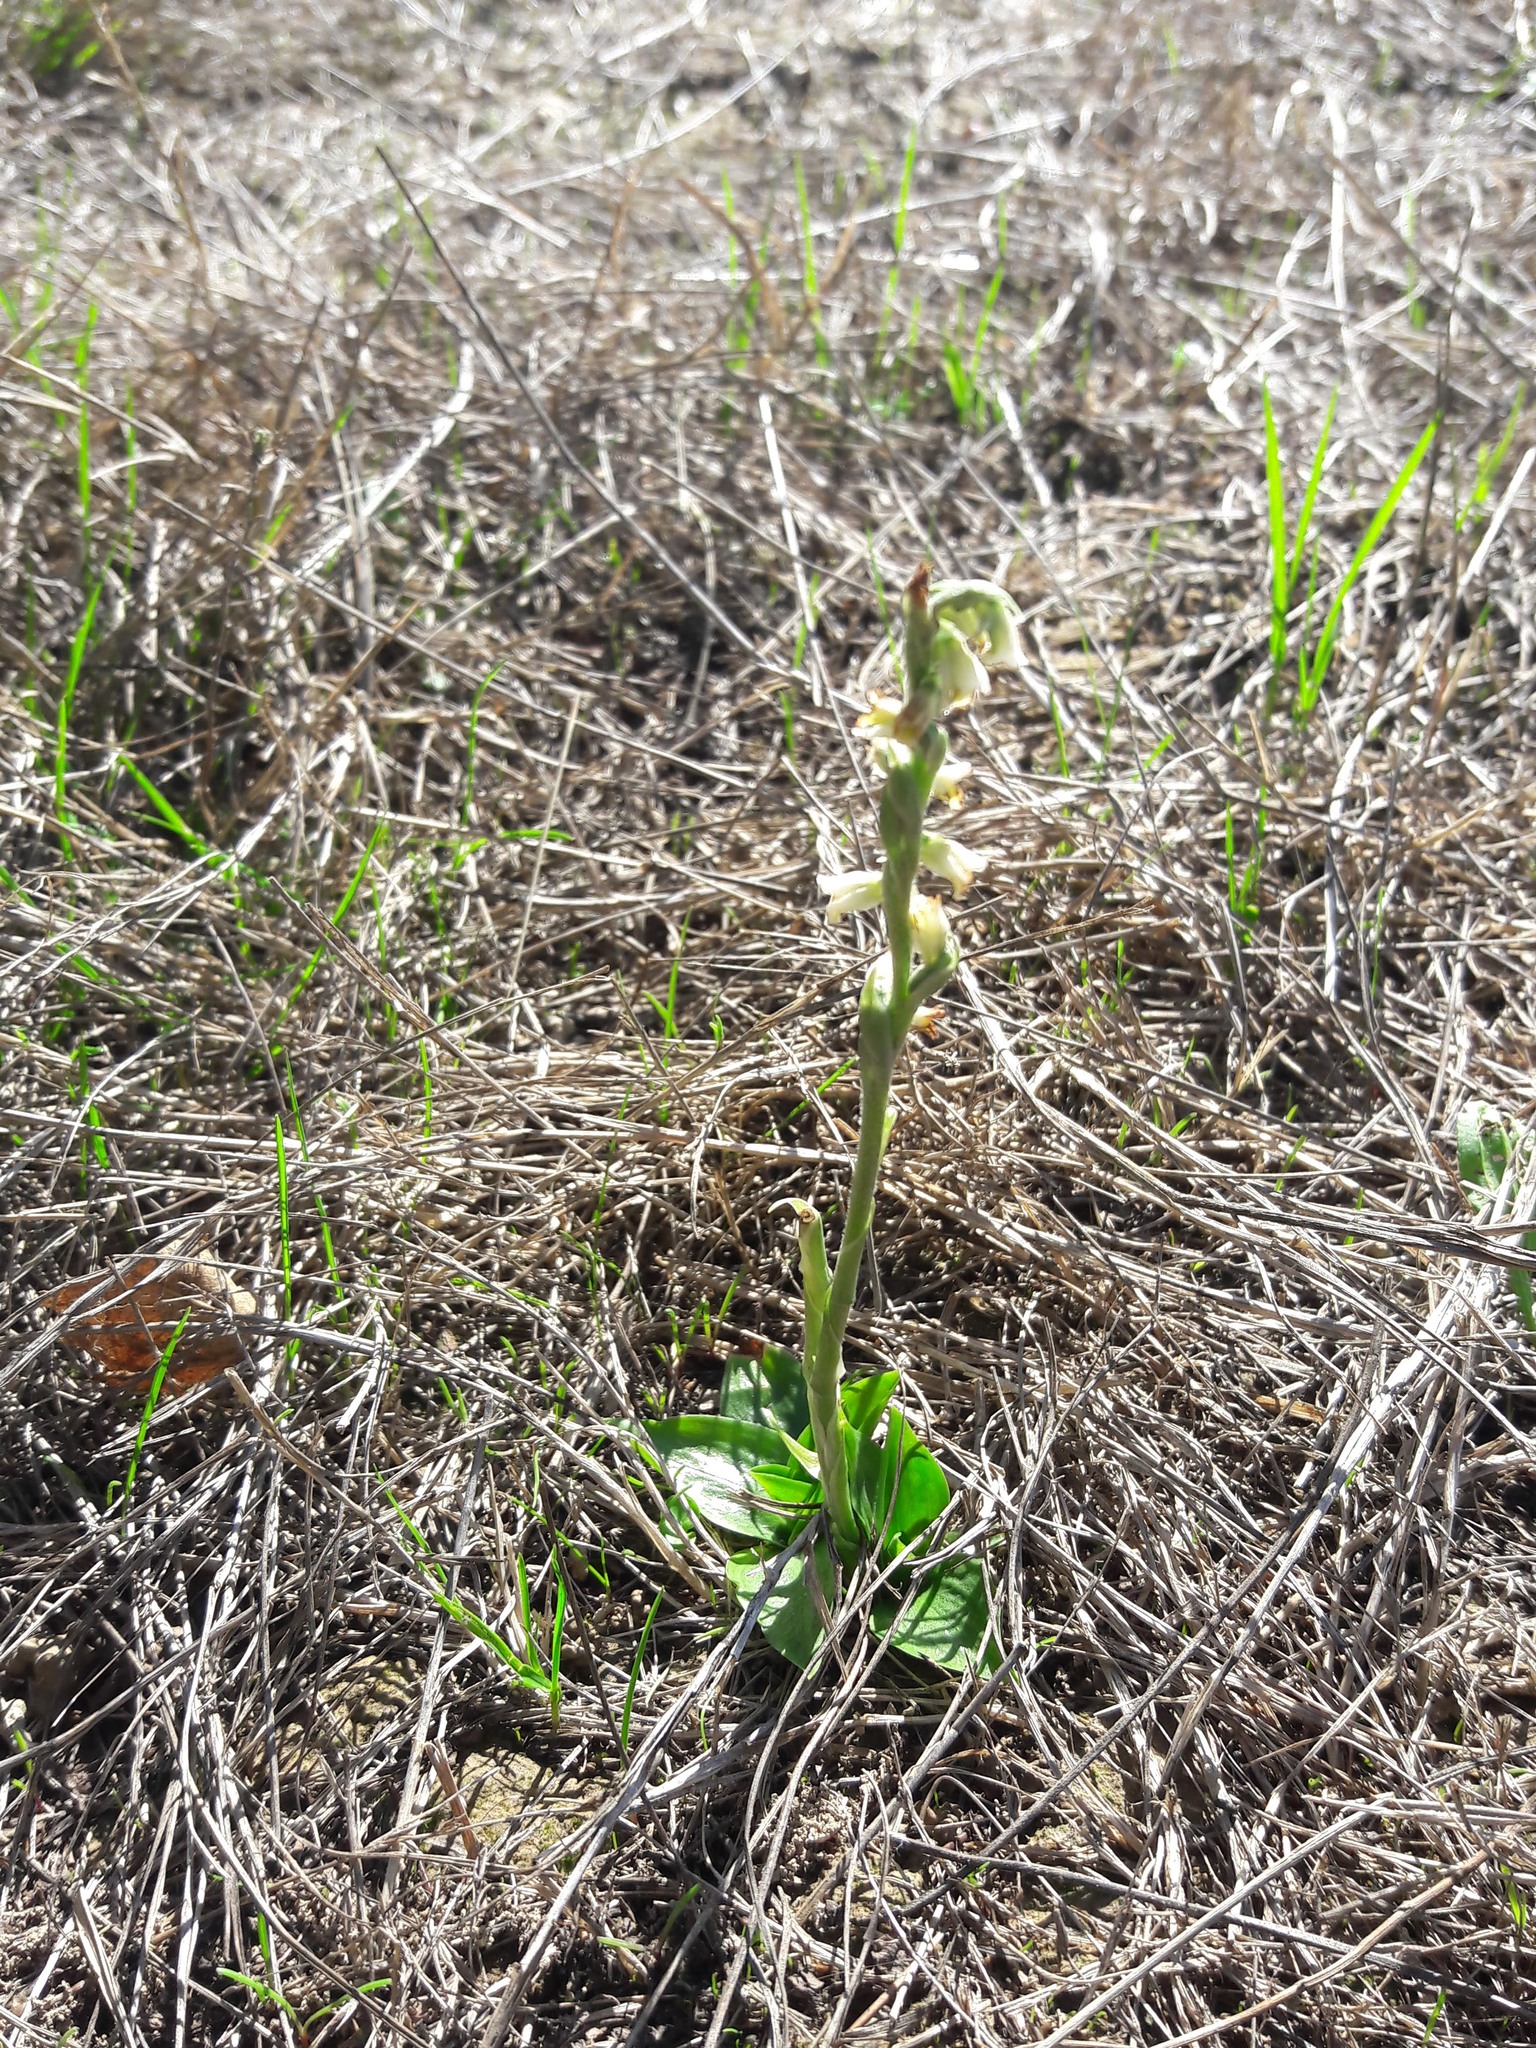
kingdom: Plantae
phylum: Tracheophyta
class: Liliopsida
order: Asparagales
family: Orchidaceae
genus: Spiranthes
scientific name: Spiranthes spiralis
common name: Autumn lady's-tresses
